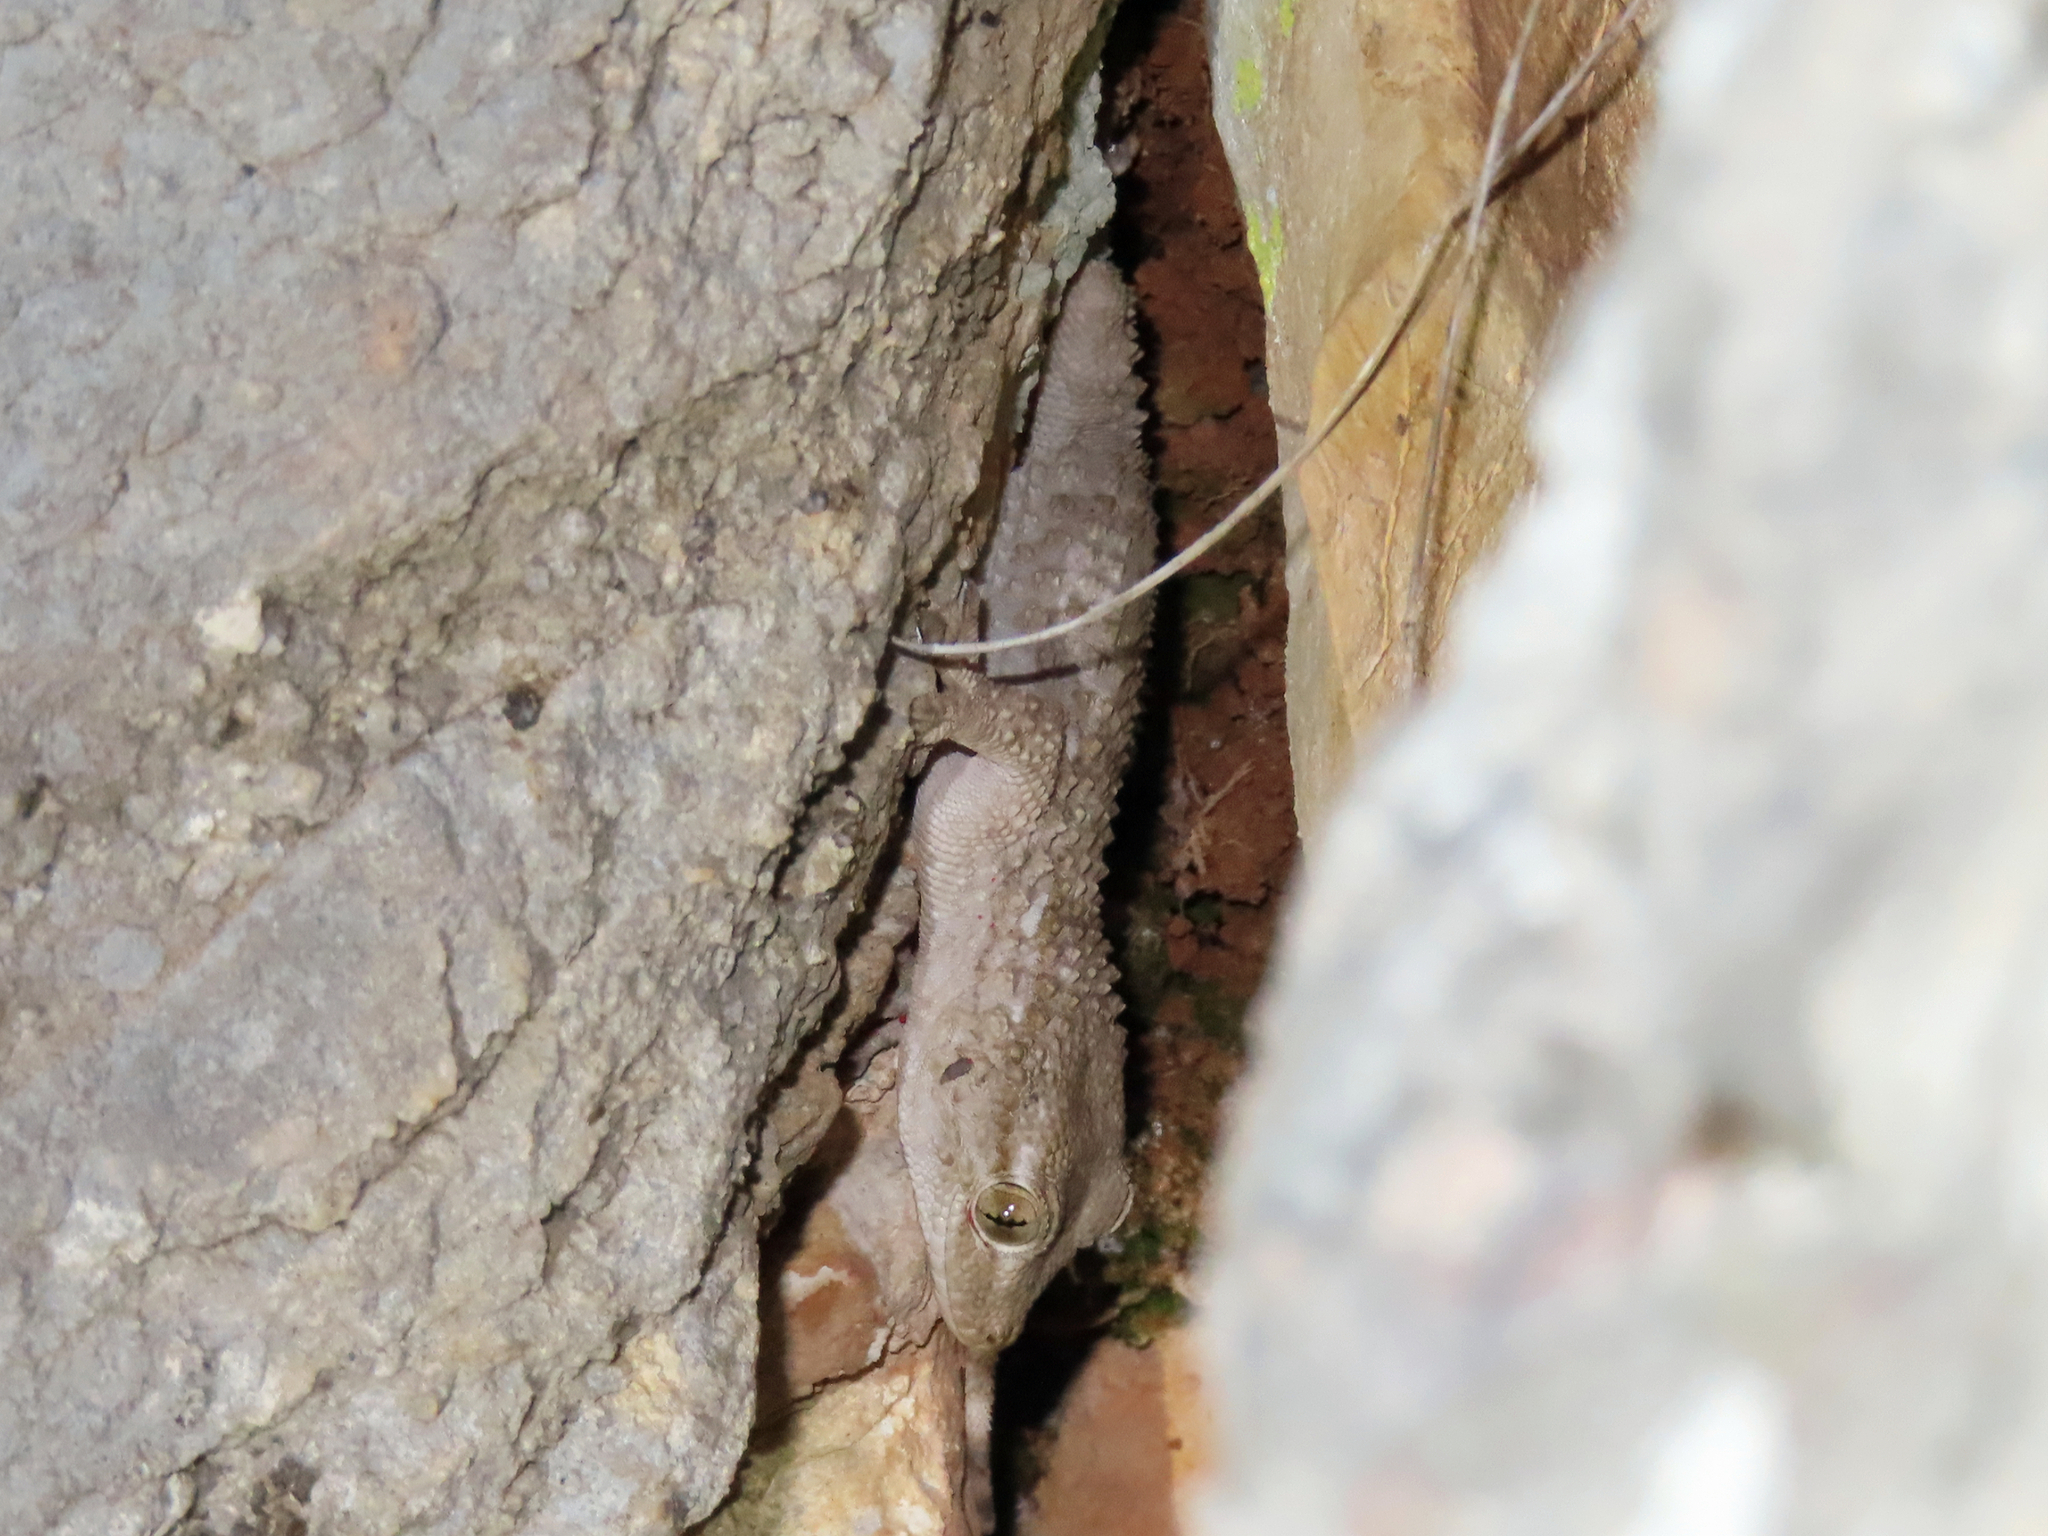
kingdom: Animalia
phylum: Chordata
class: Squamata
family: Phyllodactylidae
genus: Tarentola
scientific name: Tarentola mauritanica
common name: Moorish gecko
